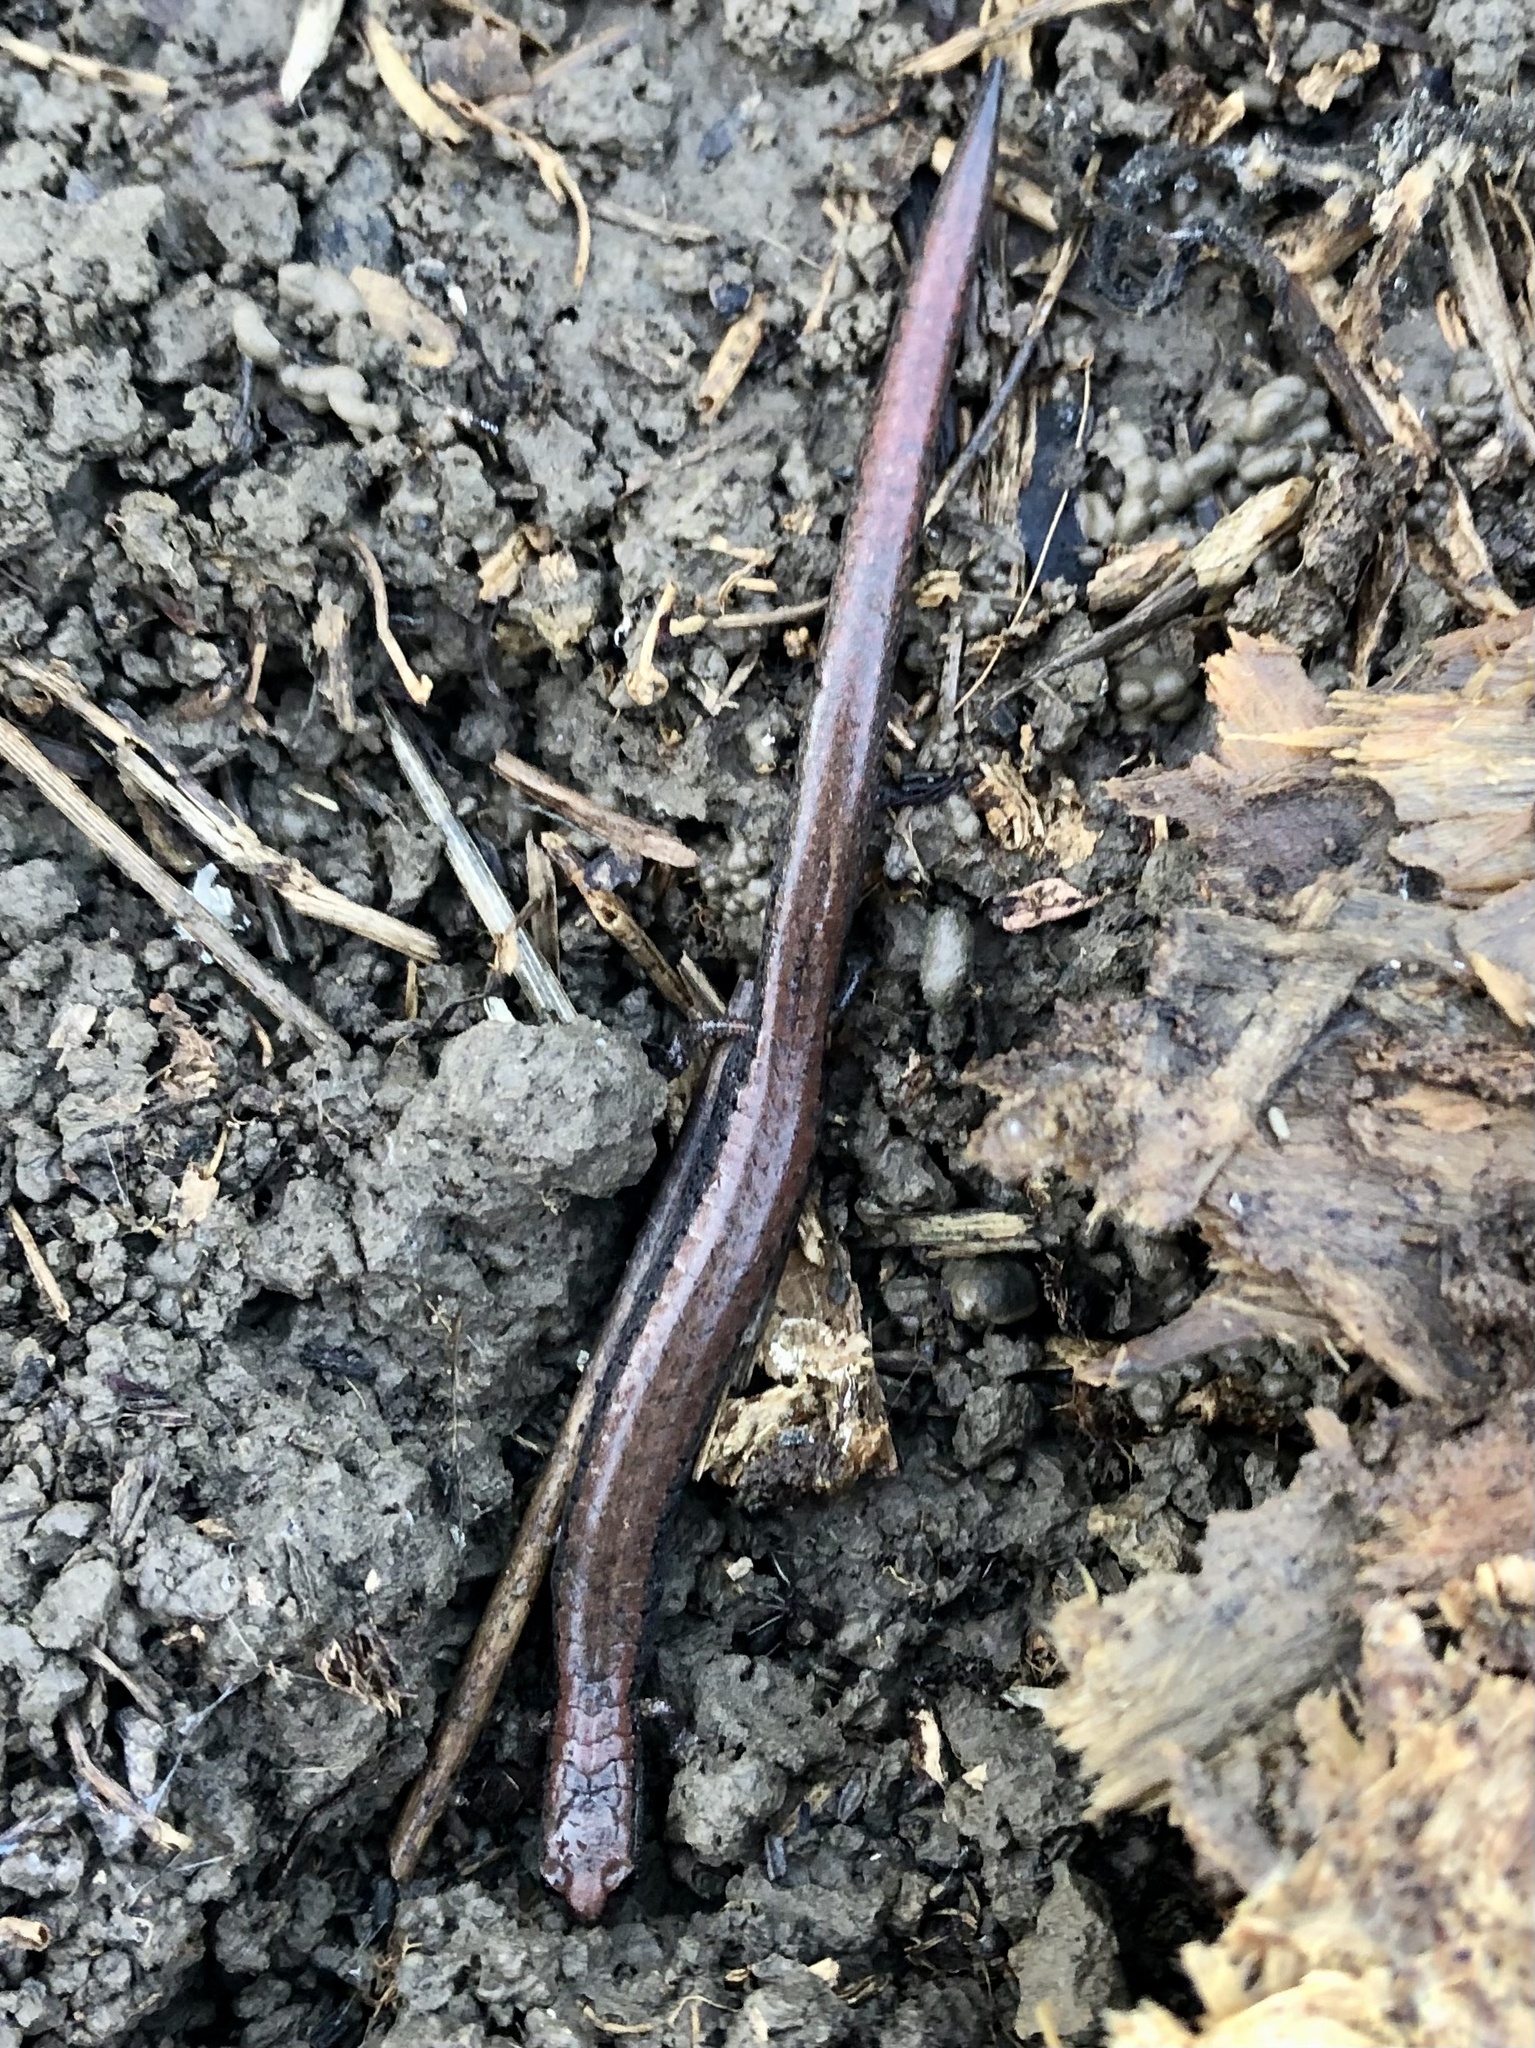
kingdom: Animalia
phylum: Chordata
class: Amphibia
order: Caudata
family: Plethodontidae
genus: Batrachoseps
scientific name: Batrachoseps attenuatus
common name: California slender salamander
